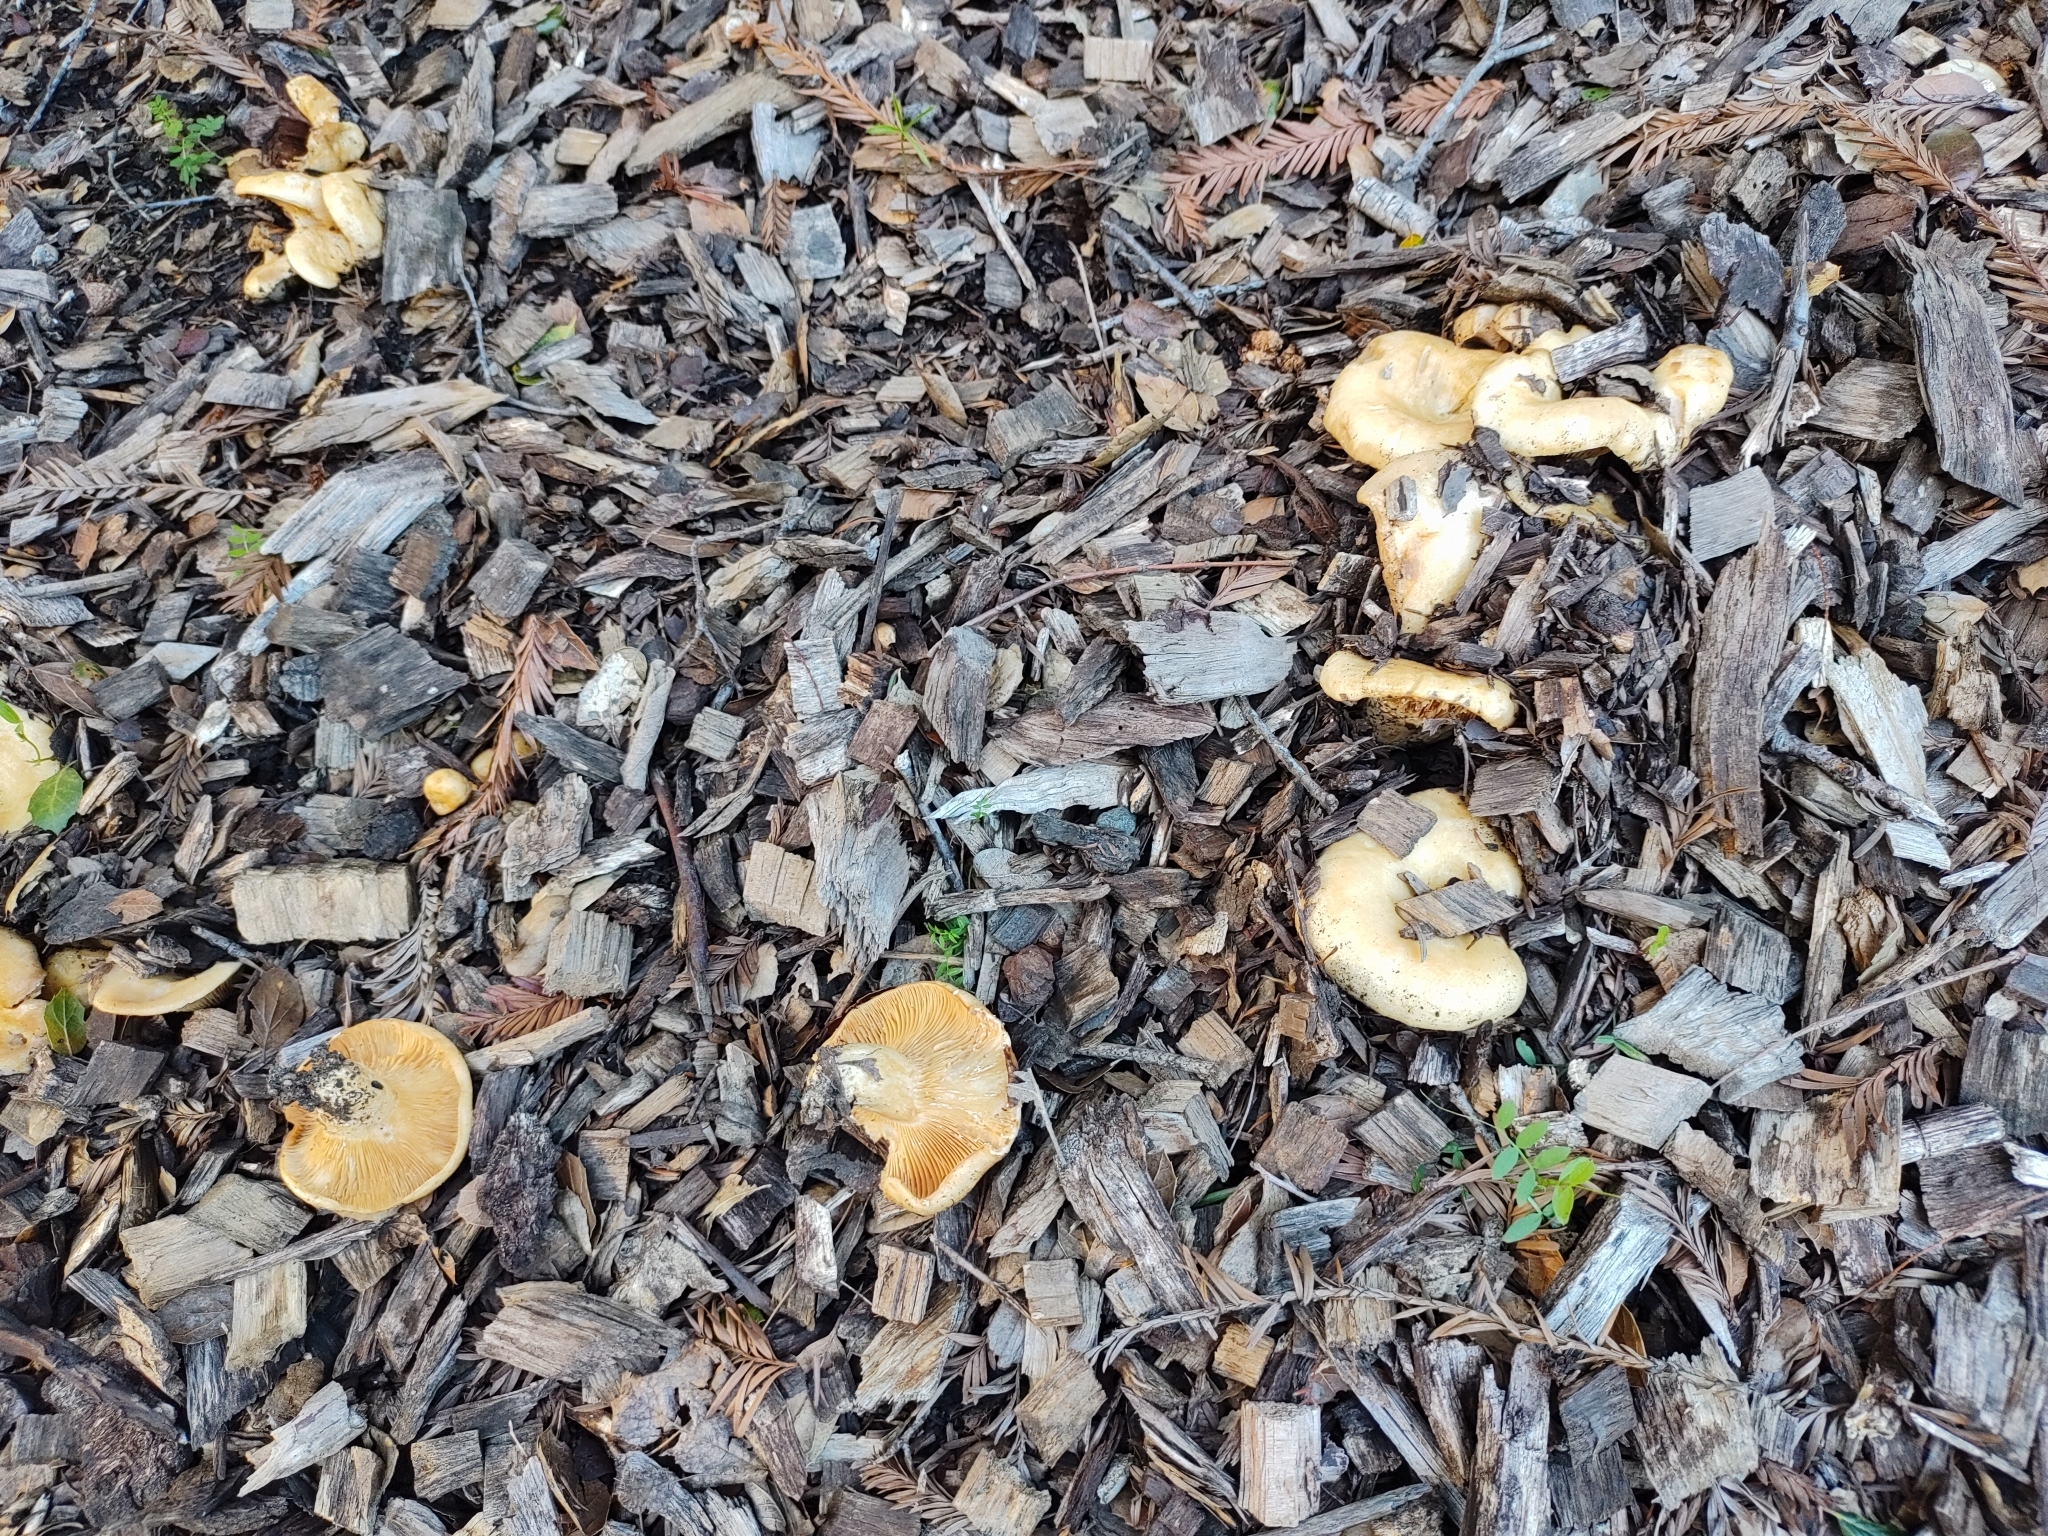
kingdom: Fungi
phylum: Basidiomycota
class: Agaricomycetes
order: Russulales
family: Russulaceae
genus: Lactarius
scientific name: Lactarius alnicola
